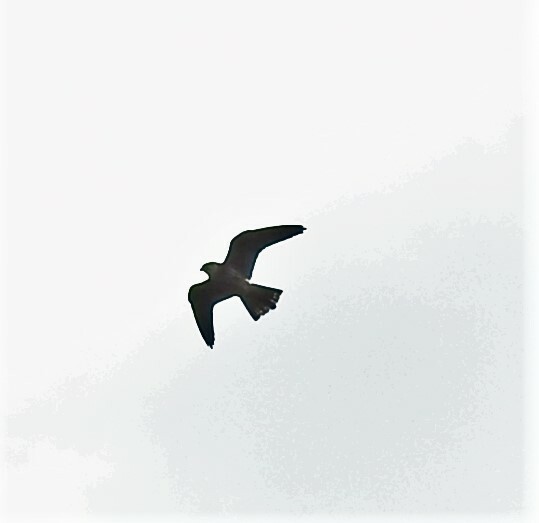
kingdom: Animalia
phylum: Chordata
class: Aves
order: Falconiformes
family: Falconidae
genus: Falco
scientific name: Falco subbuteo
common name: Eurasian hobby
